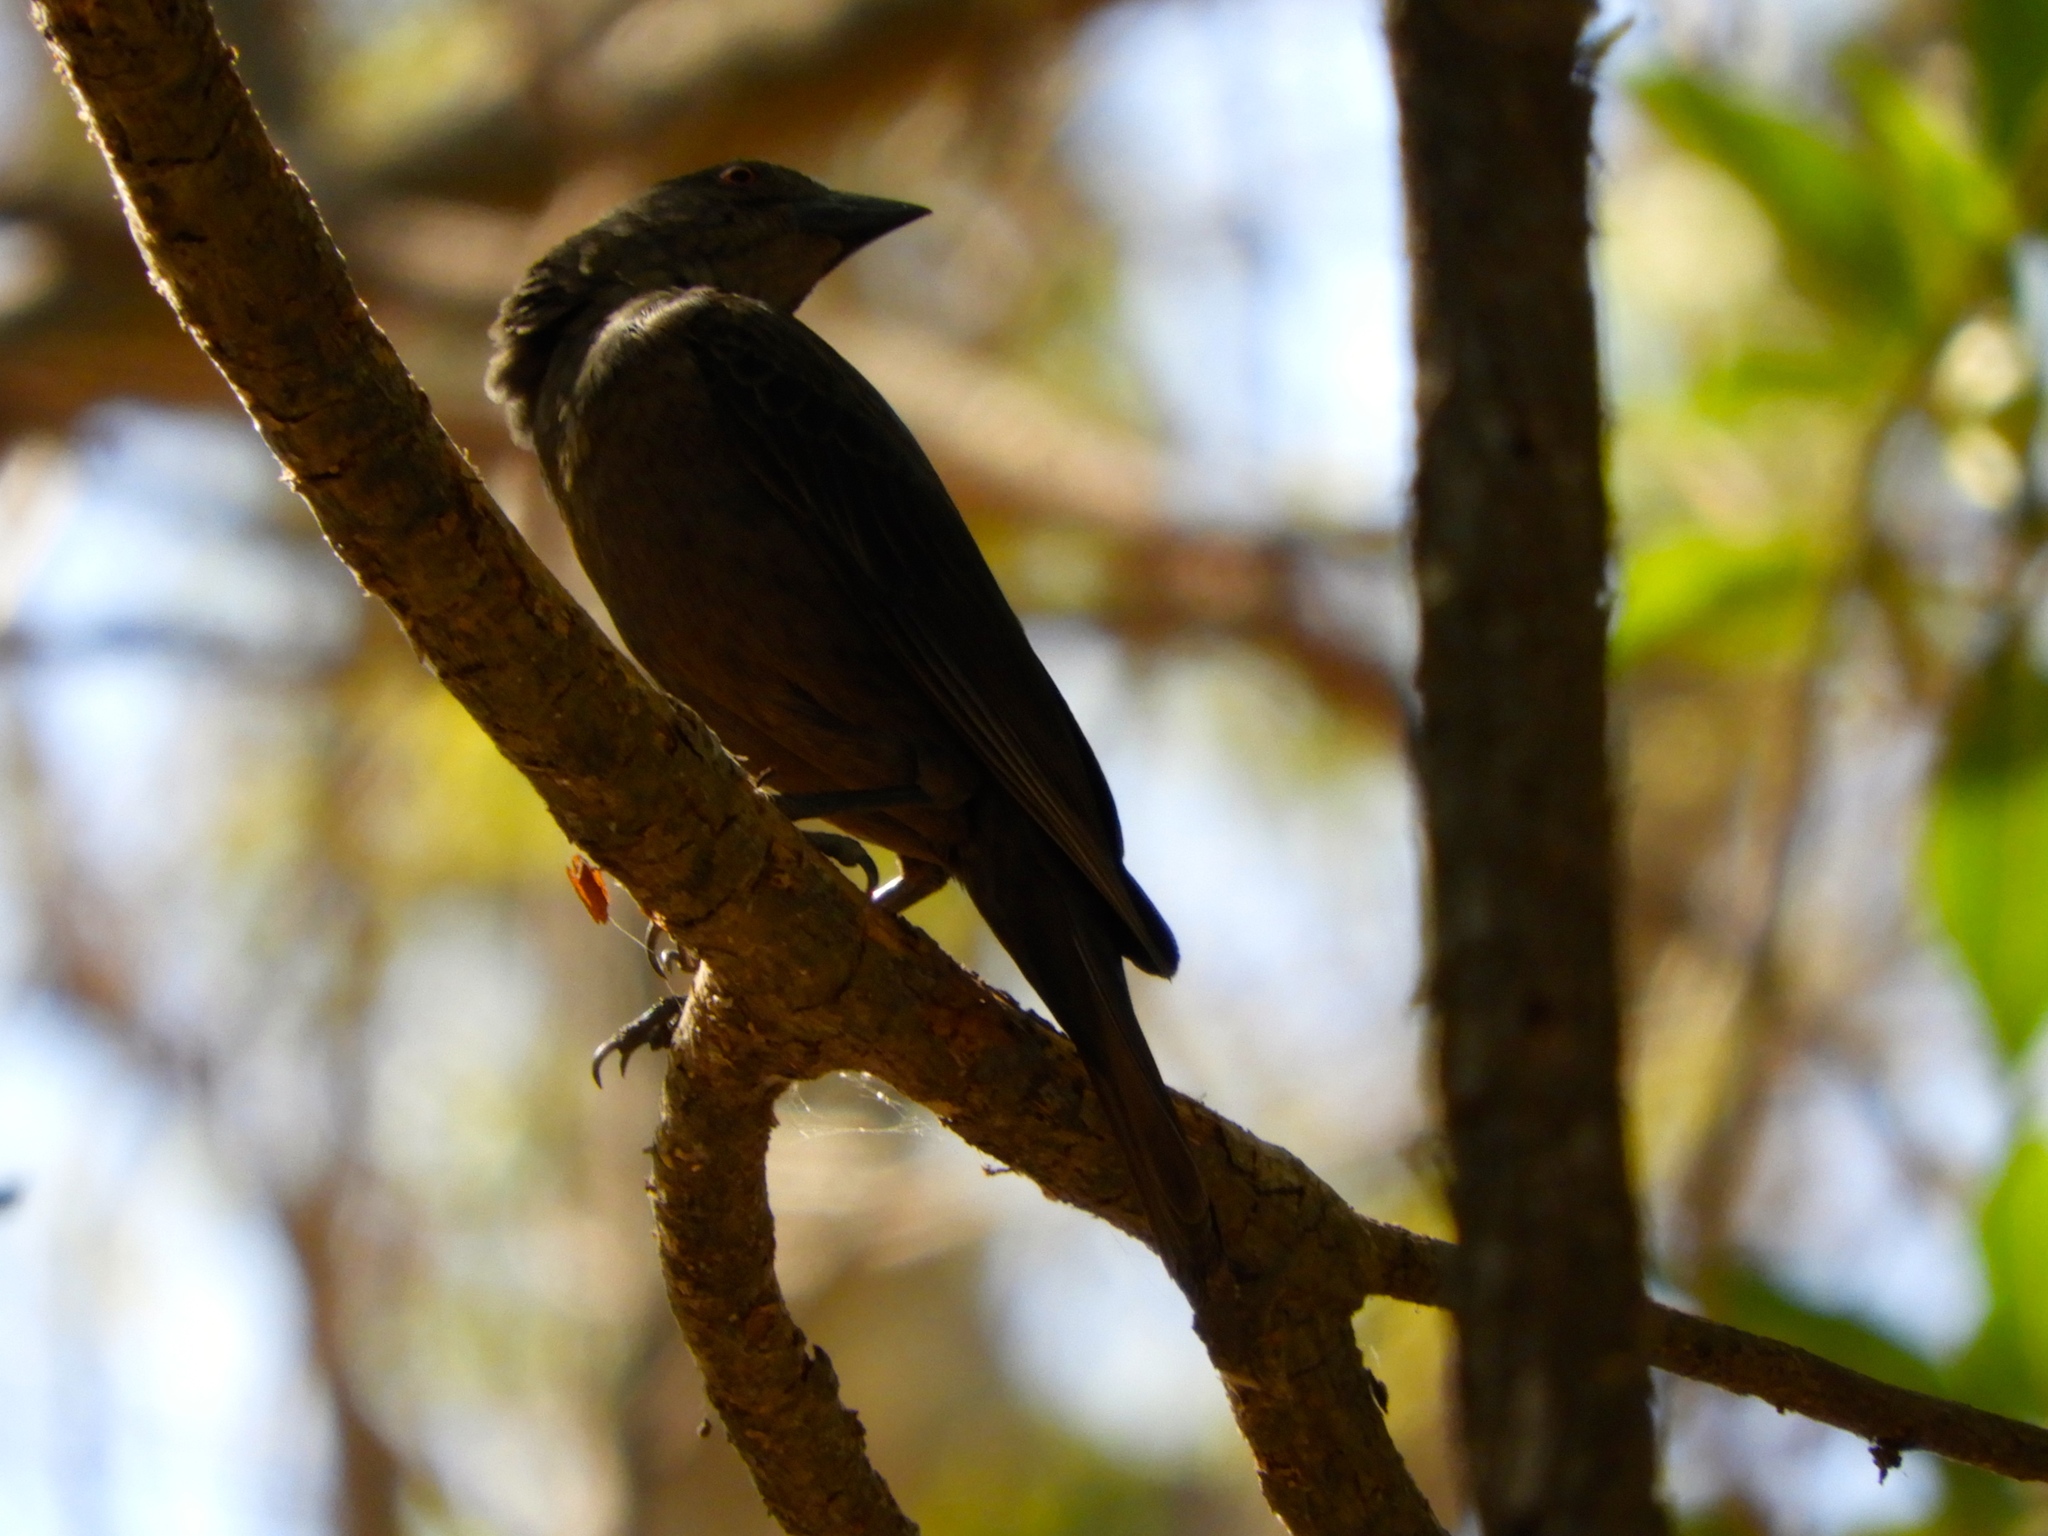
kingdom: Animalia
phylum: Chordata
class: Aves
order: Passeriformes
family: Icteridae
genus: Molothrus
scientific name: Molothrus ater
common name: Brown-headed cowbird
